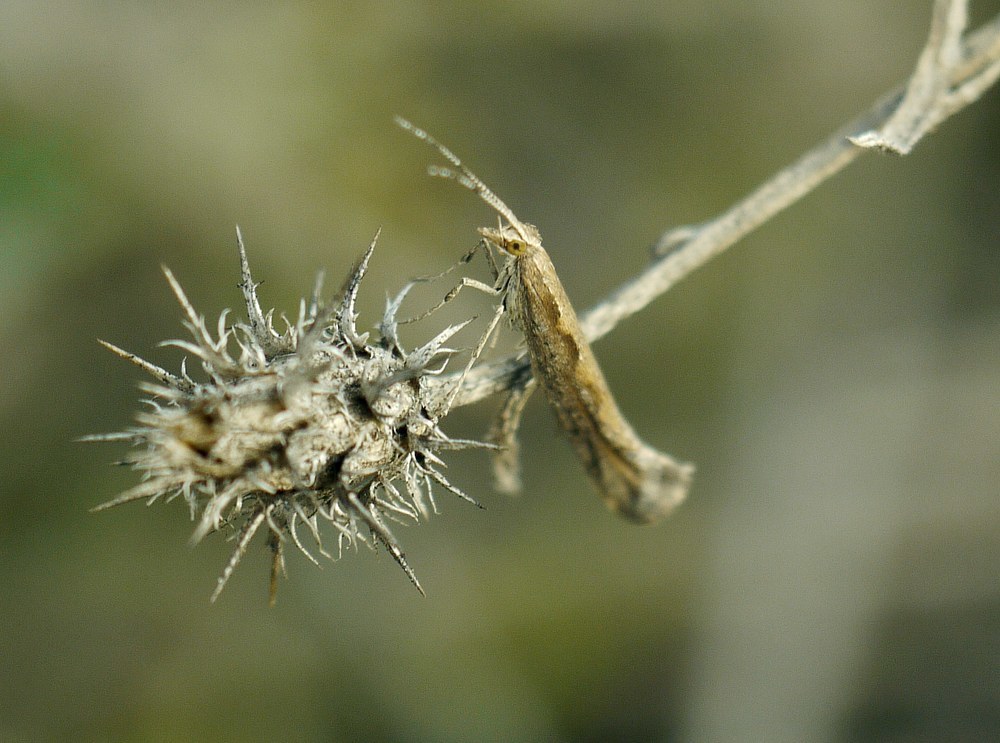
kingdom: Animalia
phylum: Arthropoda
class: Insecta
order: Lepidoptera
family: Plutellidae
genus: Plutella
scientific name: Plutella xylostella
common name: Diamond-back moth
